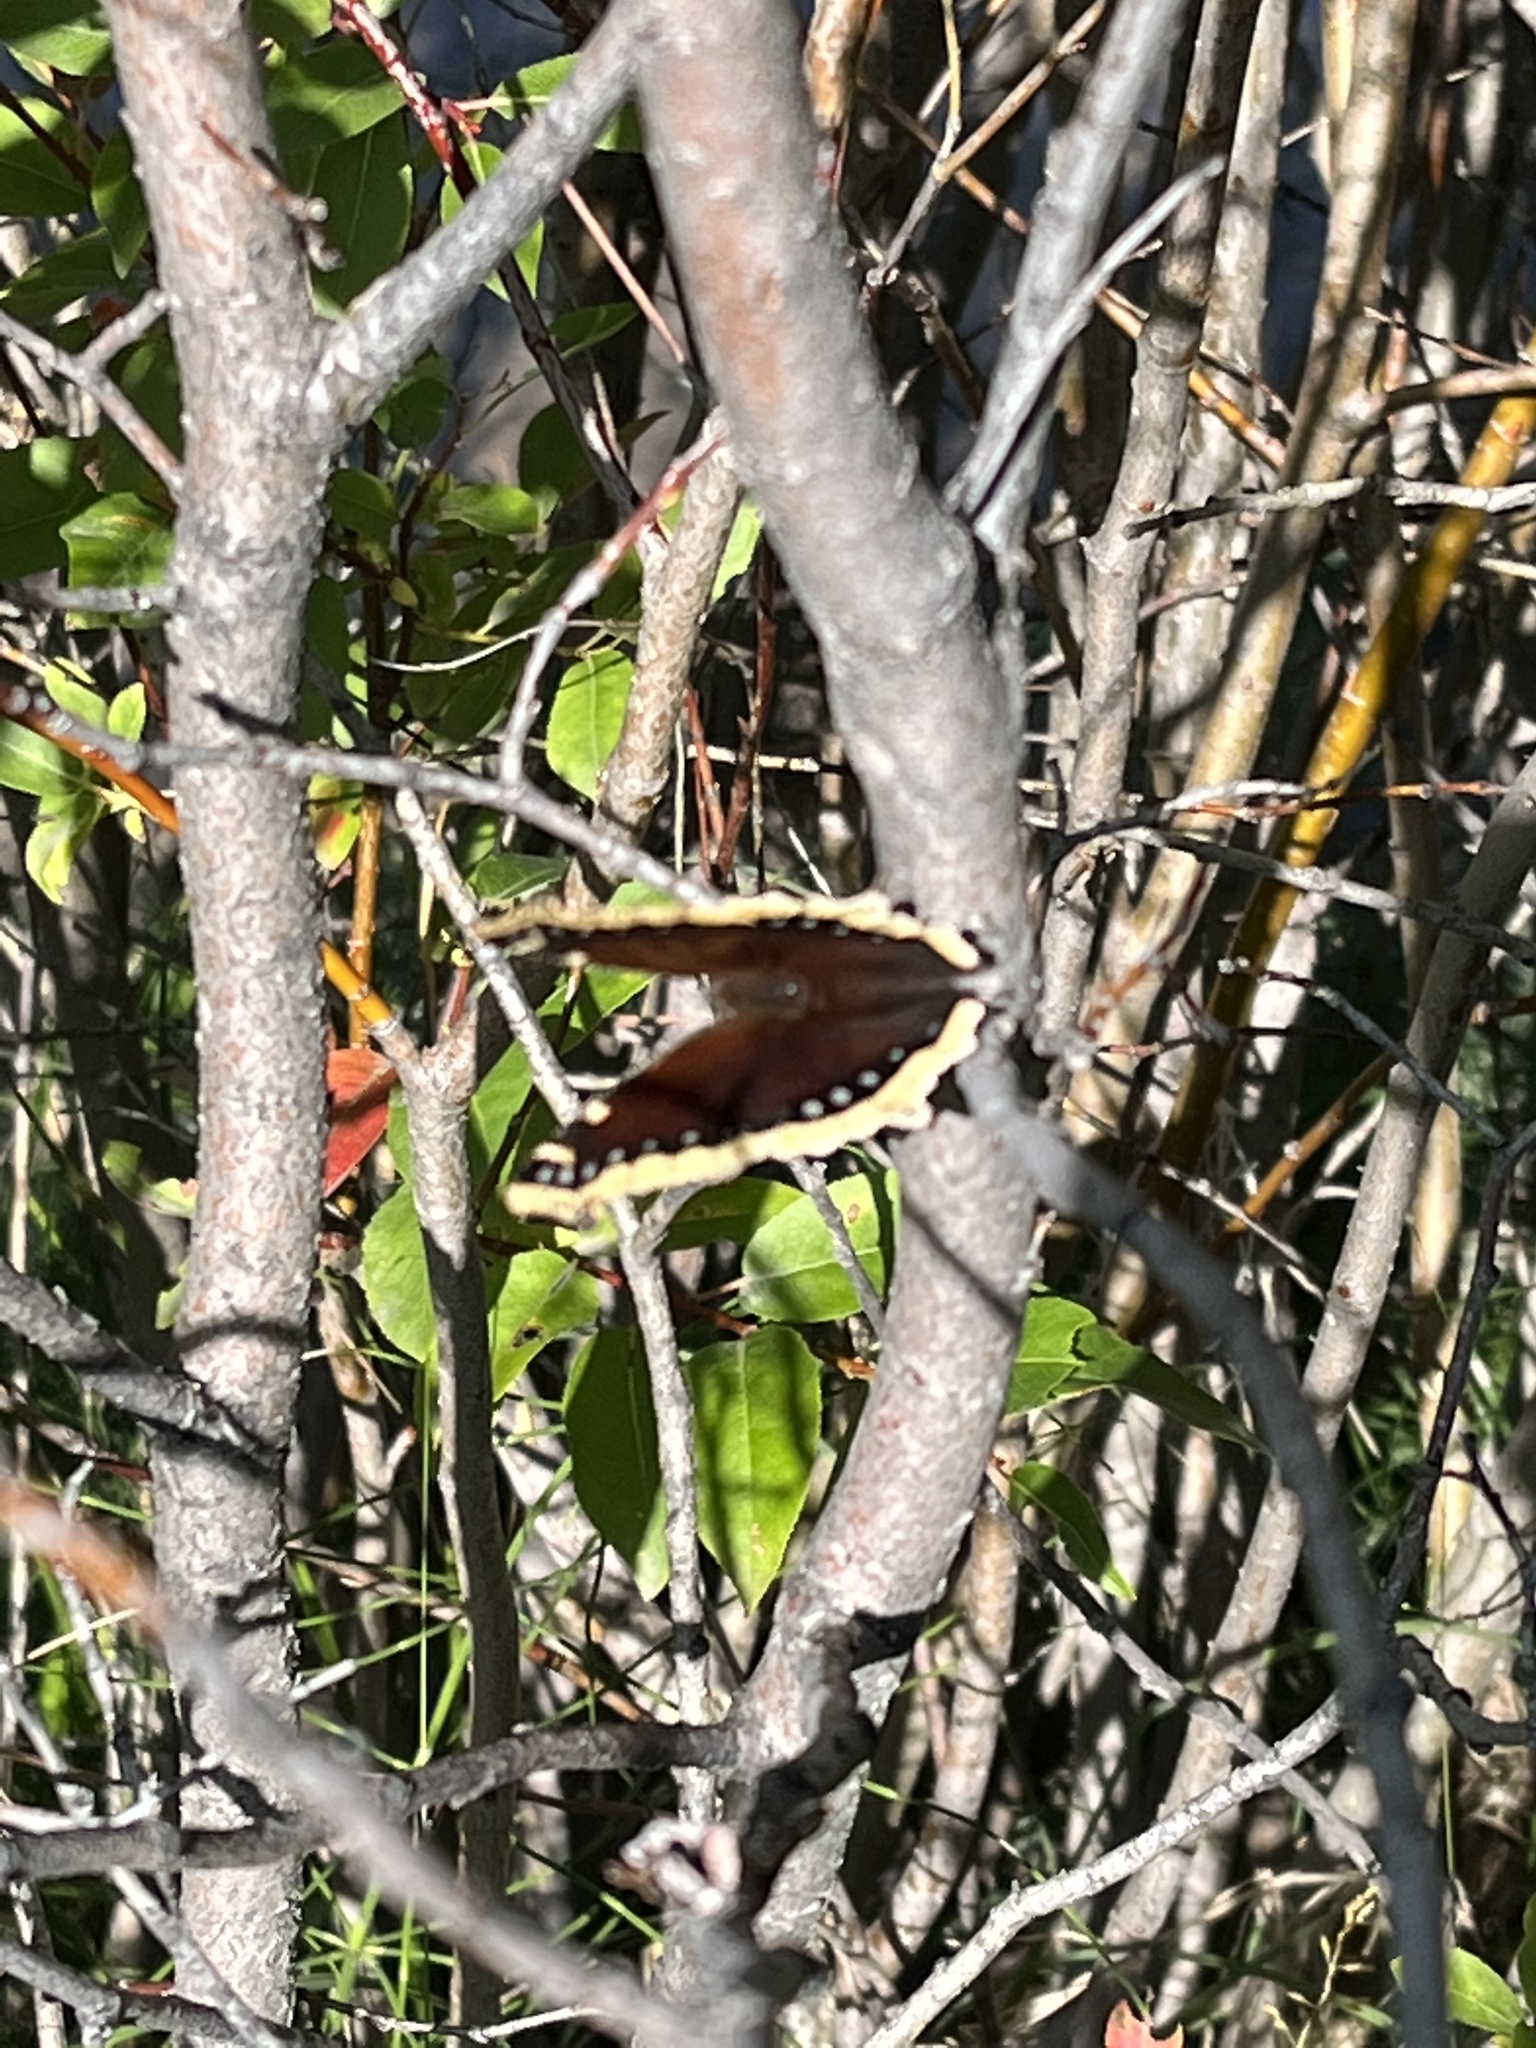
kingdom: Animalia
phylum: Arthropoda
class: Insecta
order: Lepidoptera
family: Nymphalidae
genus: Nymphalis
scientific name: Nymphalis antiopa
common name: Camberwell beauty
